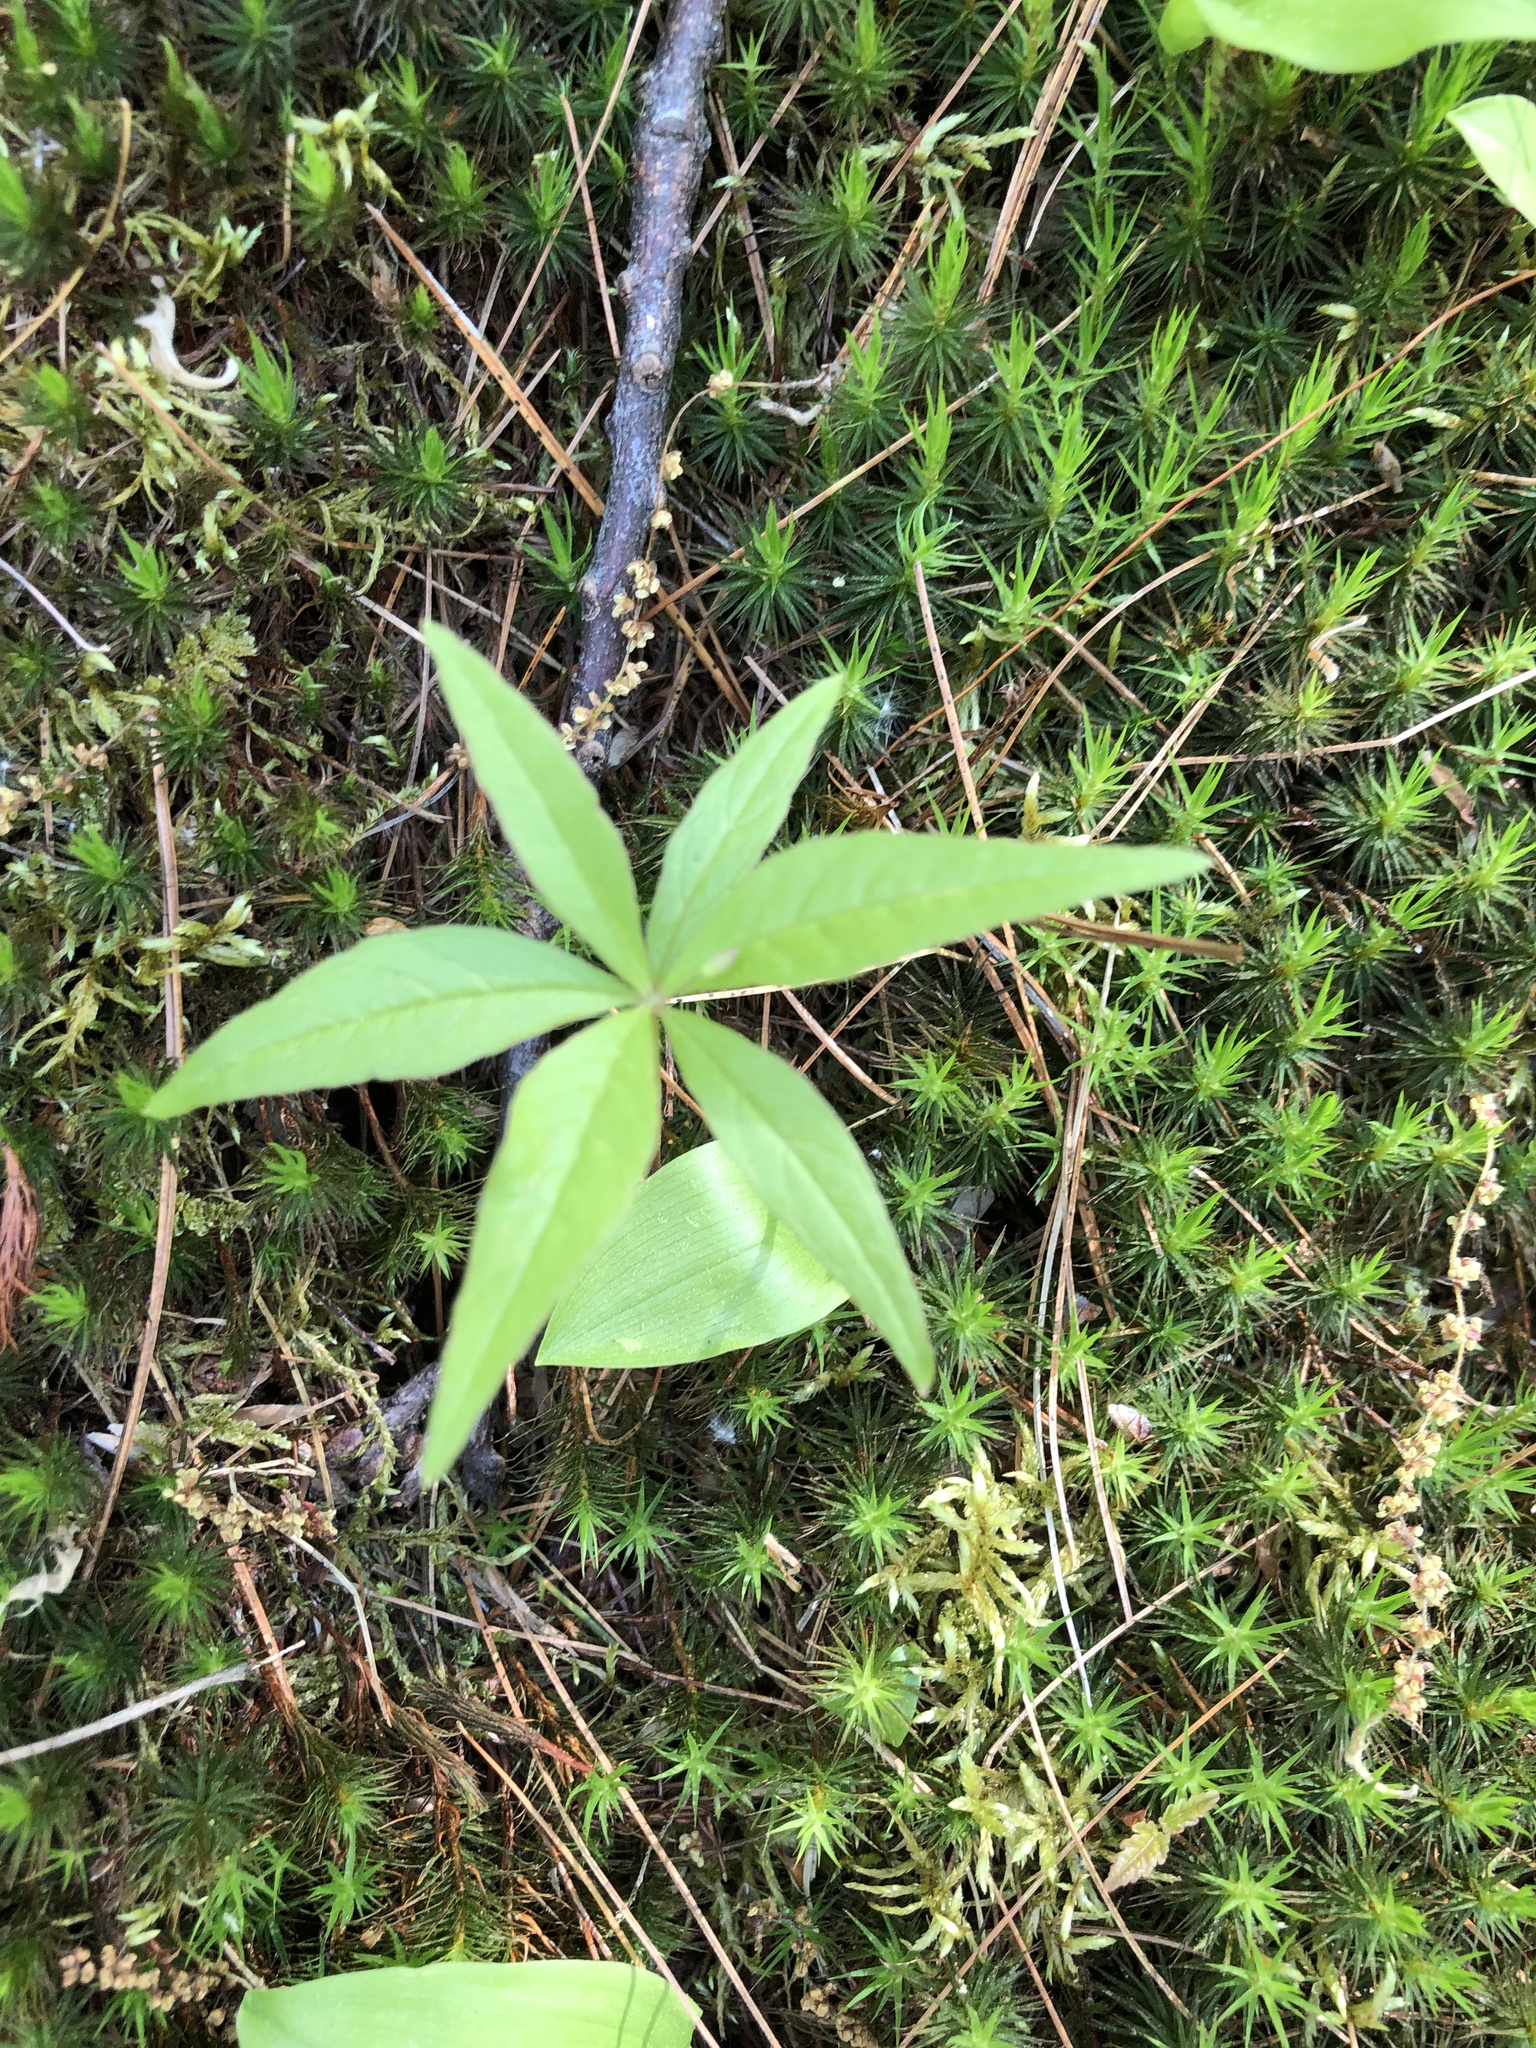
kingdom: Plantae
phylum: Tracheophyta
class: Magnoliopsida
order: Ericales
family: Primulaceae
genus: Lysimachia
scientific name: Lysimachia borealis
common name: American starflower
